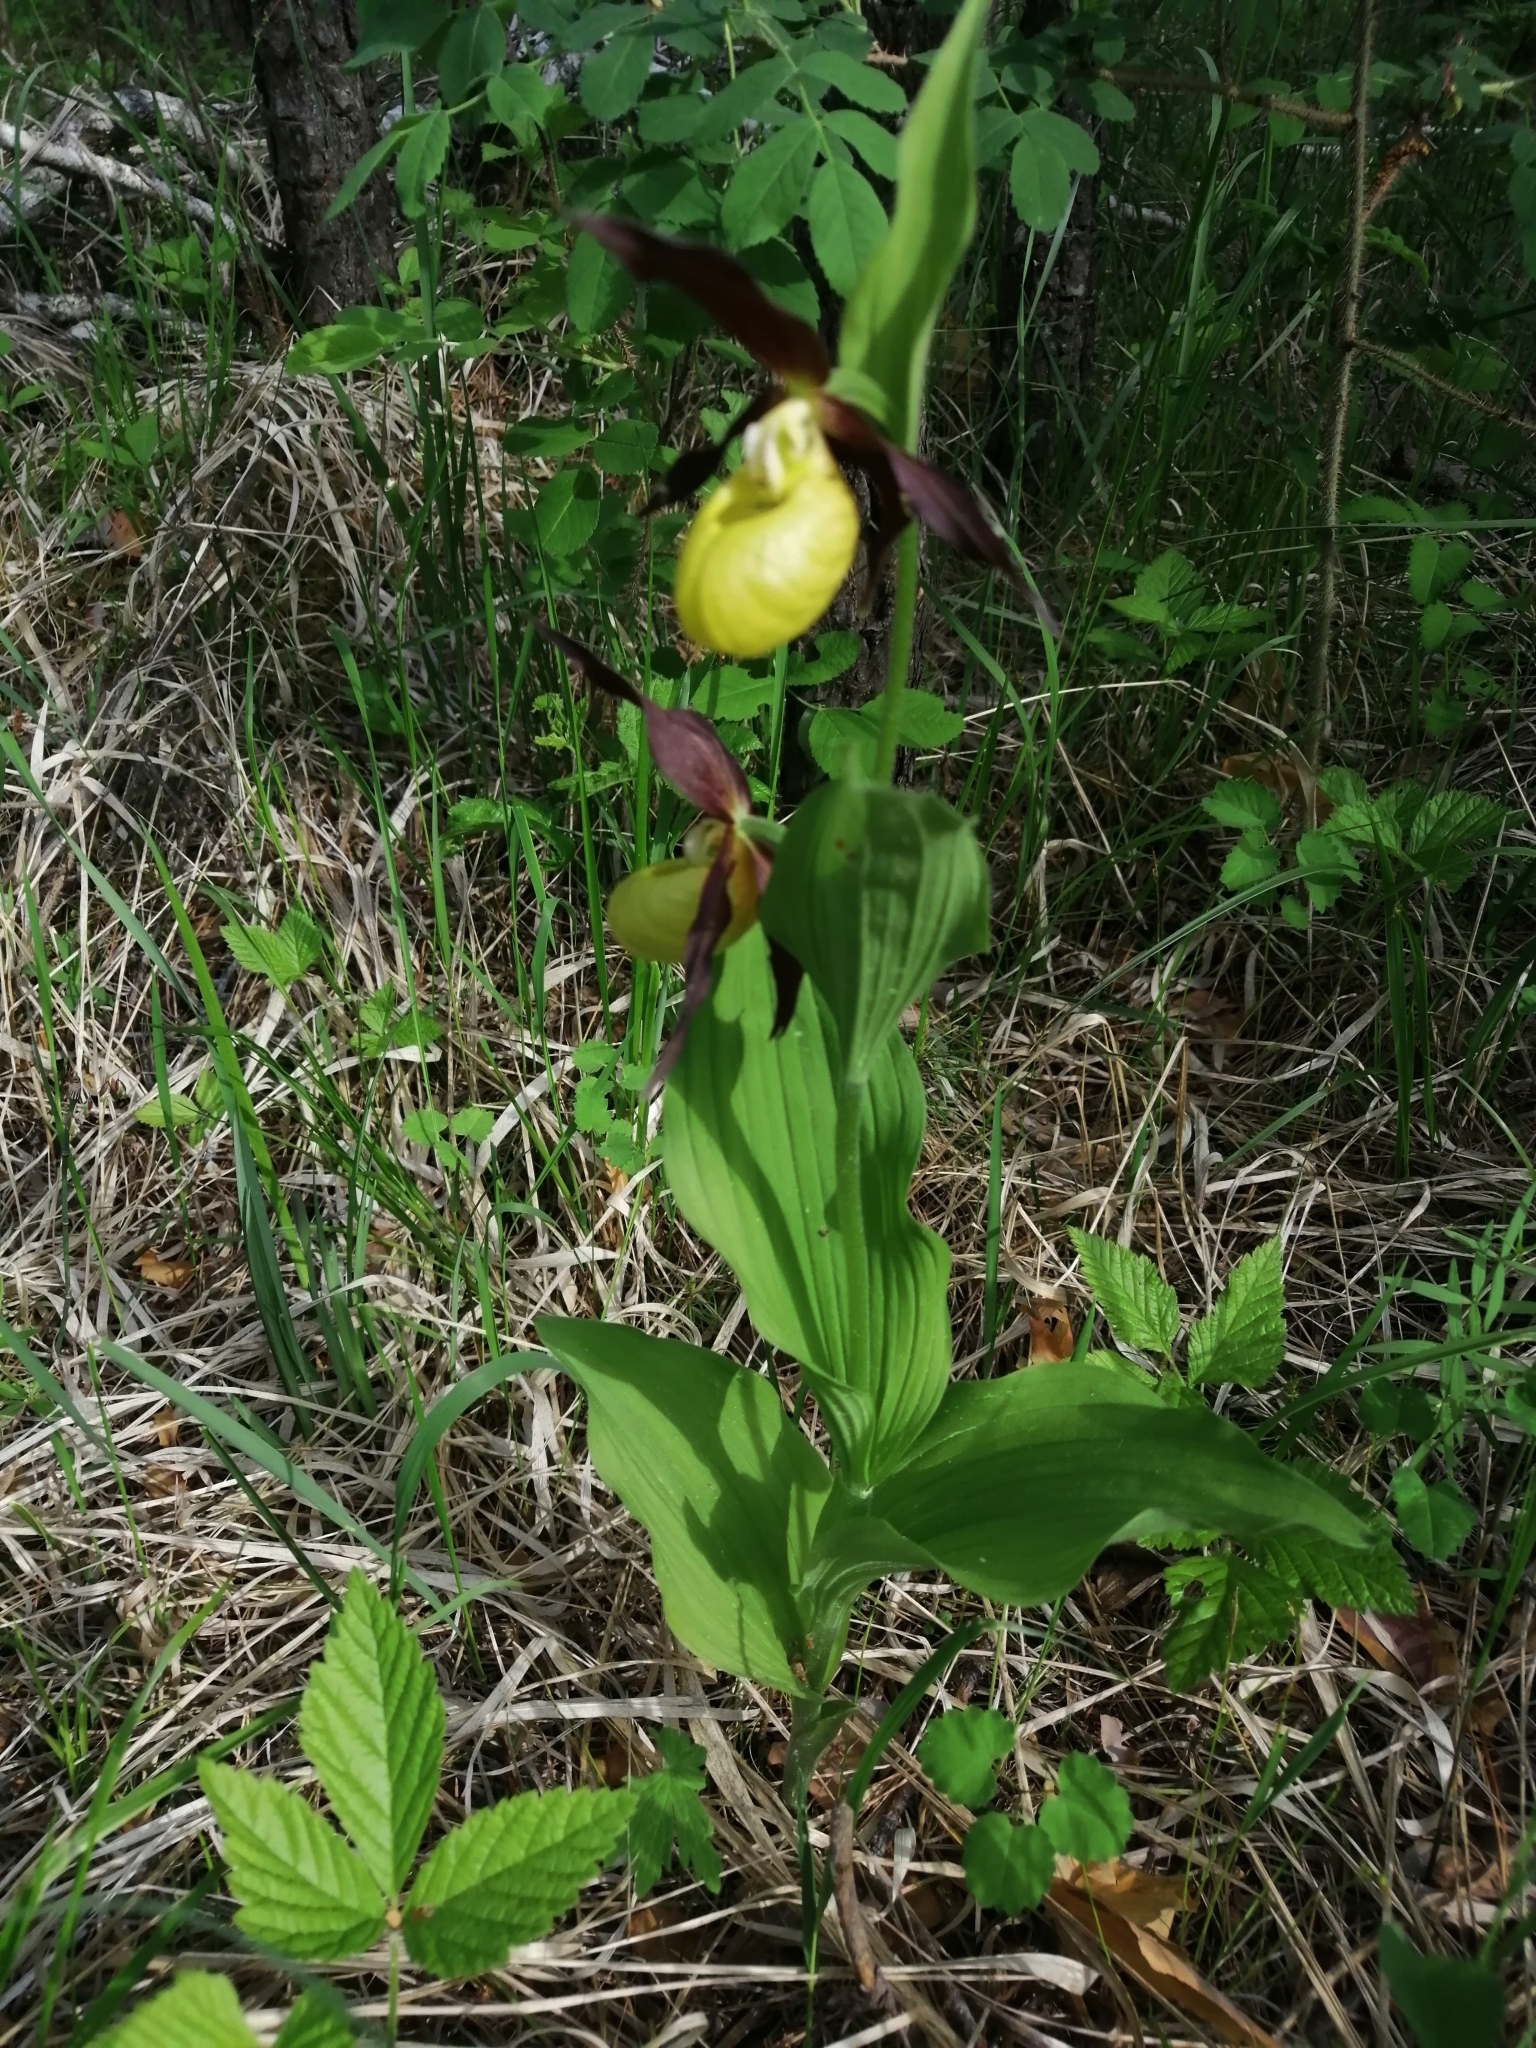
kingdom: Plantae
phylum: Tracheophyta
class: Liliopsida
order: Asparagales
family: Orchidaceae
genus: Cypripedium
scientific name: Cypripedium calceolus
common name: Lady's-slipper
